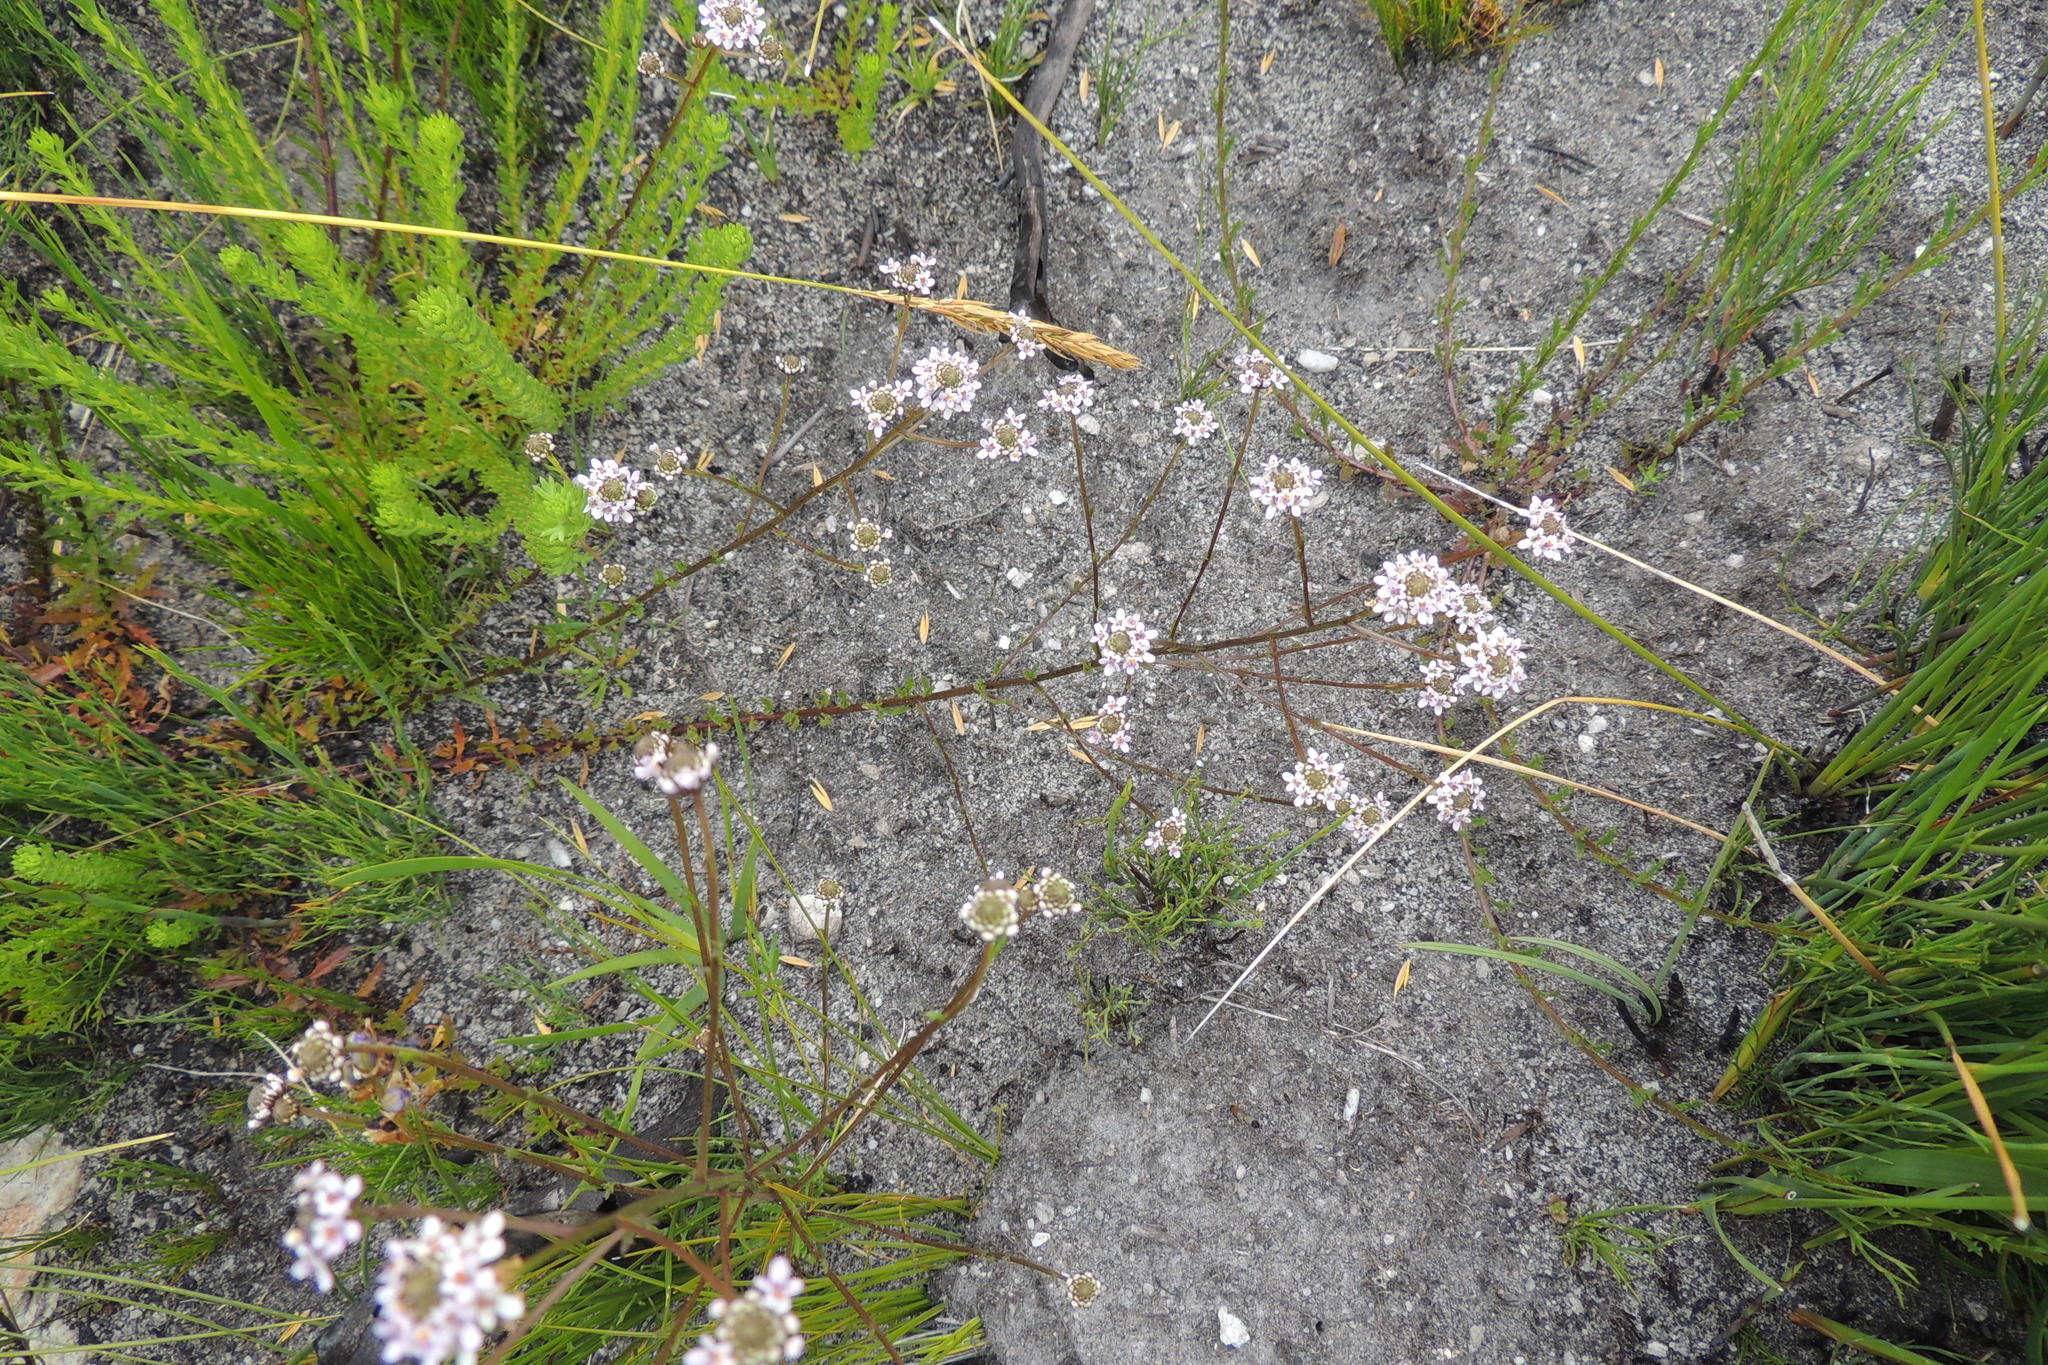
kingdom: Plantae
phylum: Tracheophyta
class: Magnoliopsida
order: Lamiales
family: Scrophulariaceae
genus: Pseudoselago
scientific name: Pseudoselago candida
